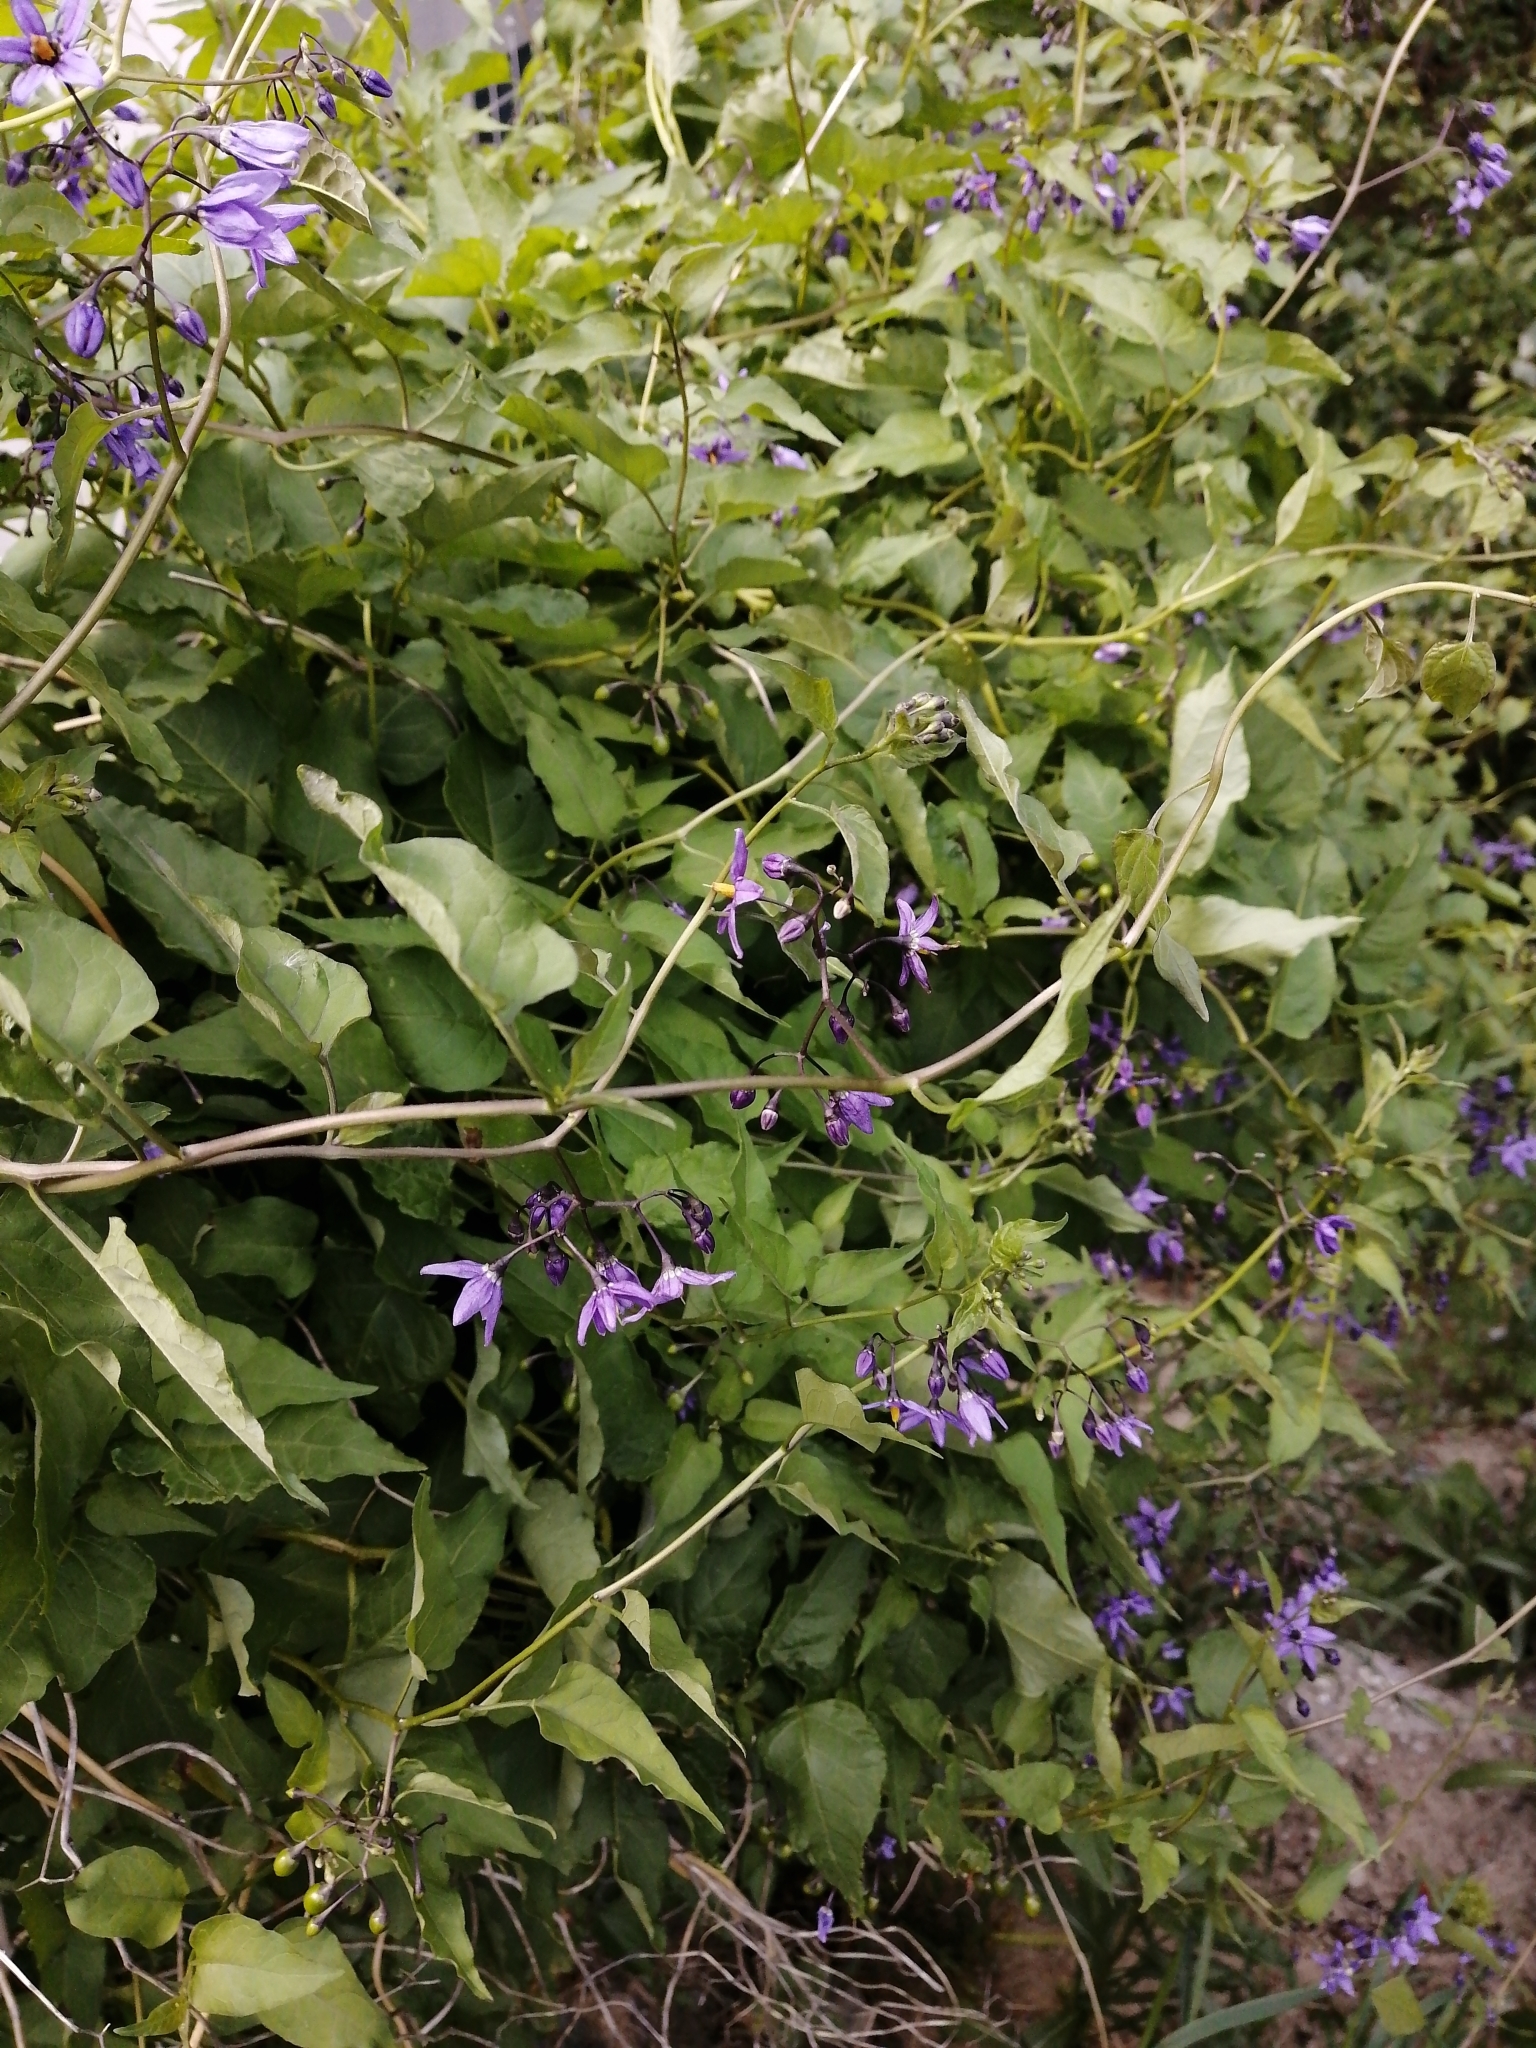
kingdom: Plantae
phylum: Tracheophyta
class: Magnoliopsida
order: Solanales
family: Solanaceae
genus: Solanum
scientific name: Solanum dulcamara
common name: Climbing nightshade
